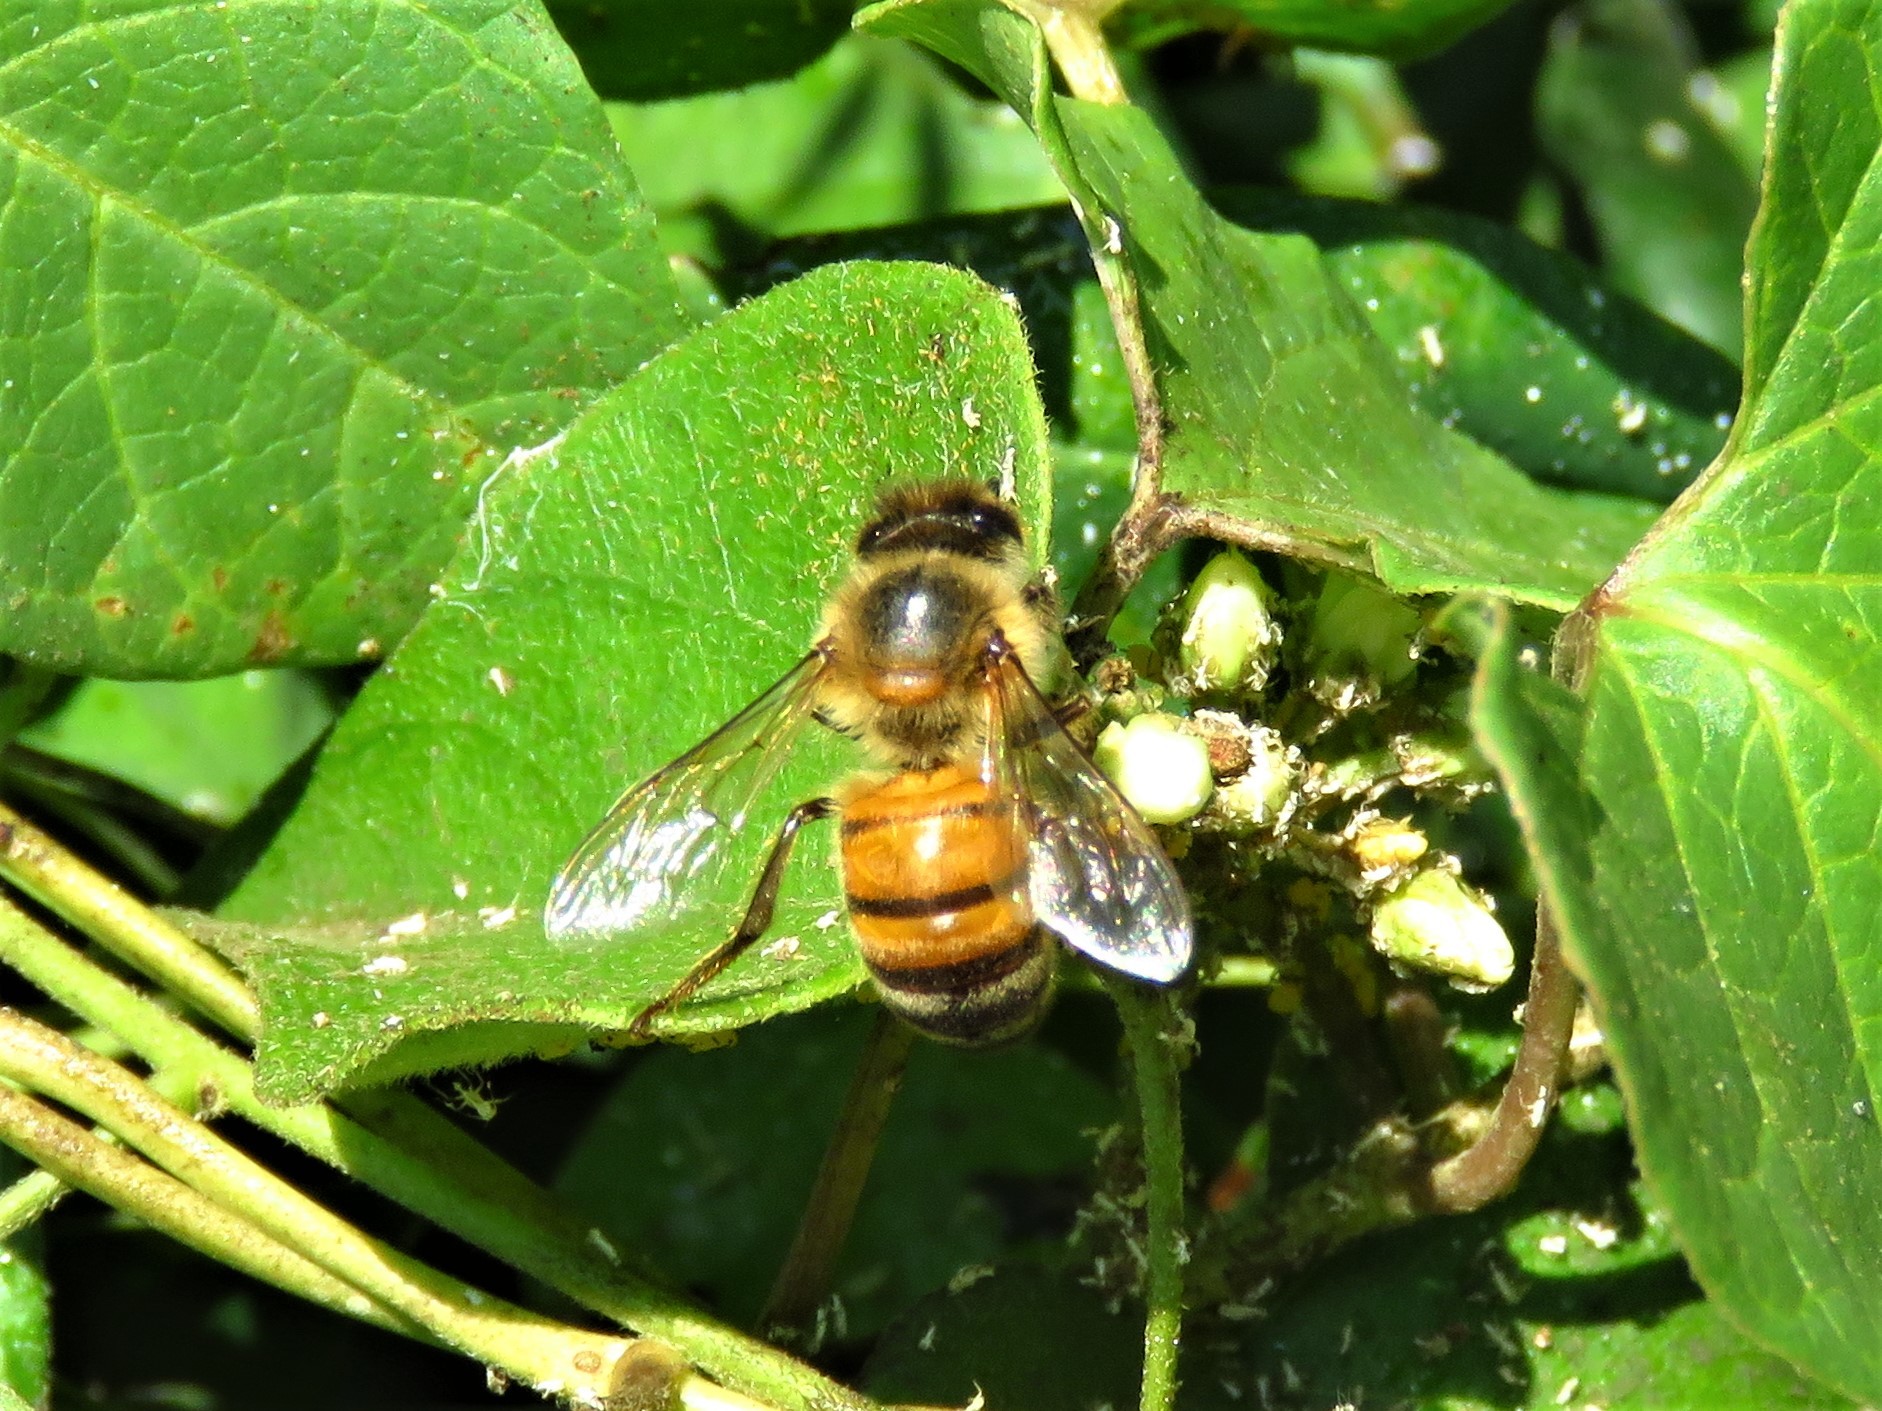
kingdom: Animalia
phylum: Arthropoda
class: Insecta
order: Hymenoptera
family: Apidae
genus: Apis
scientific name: Apis mellifera
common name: Honey bee
